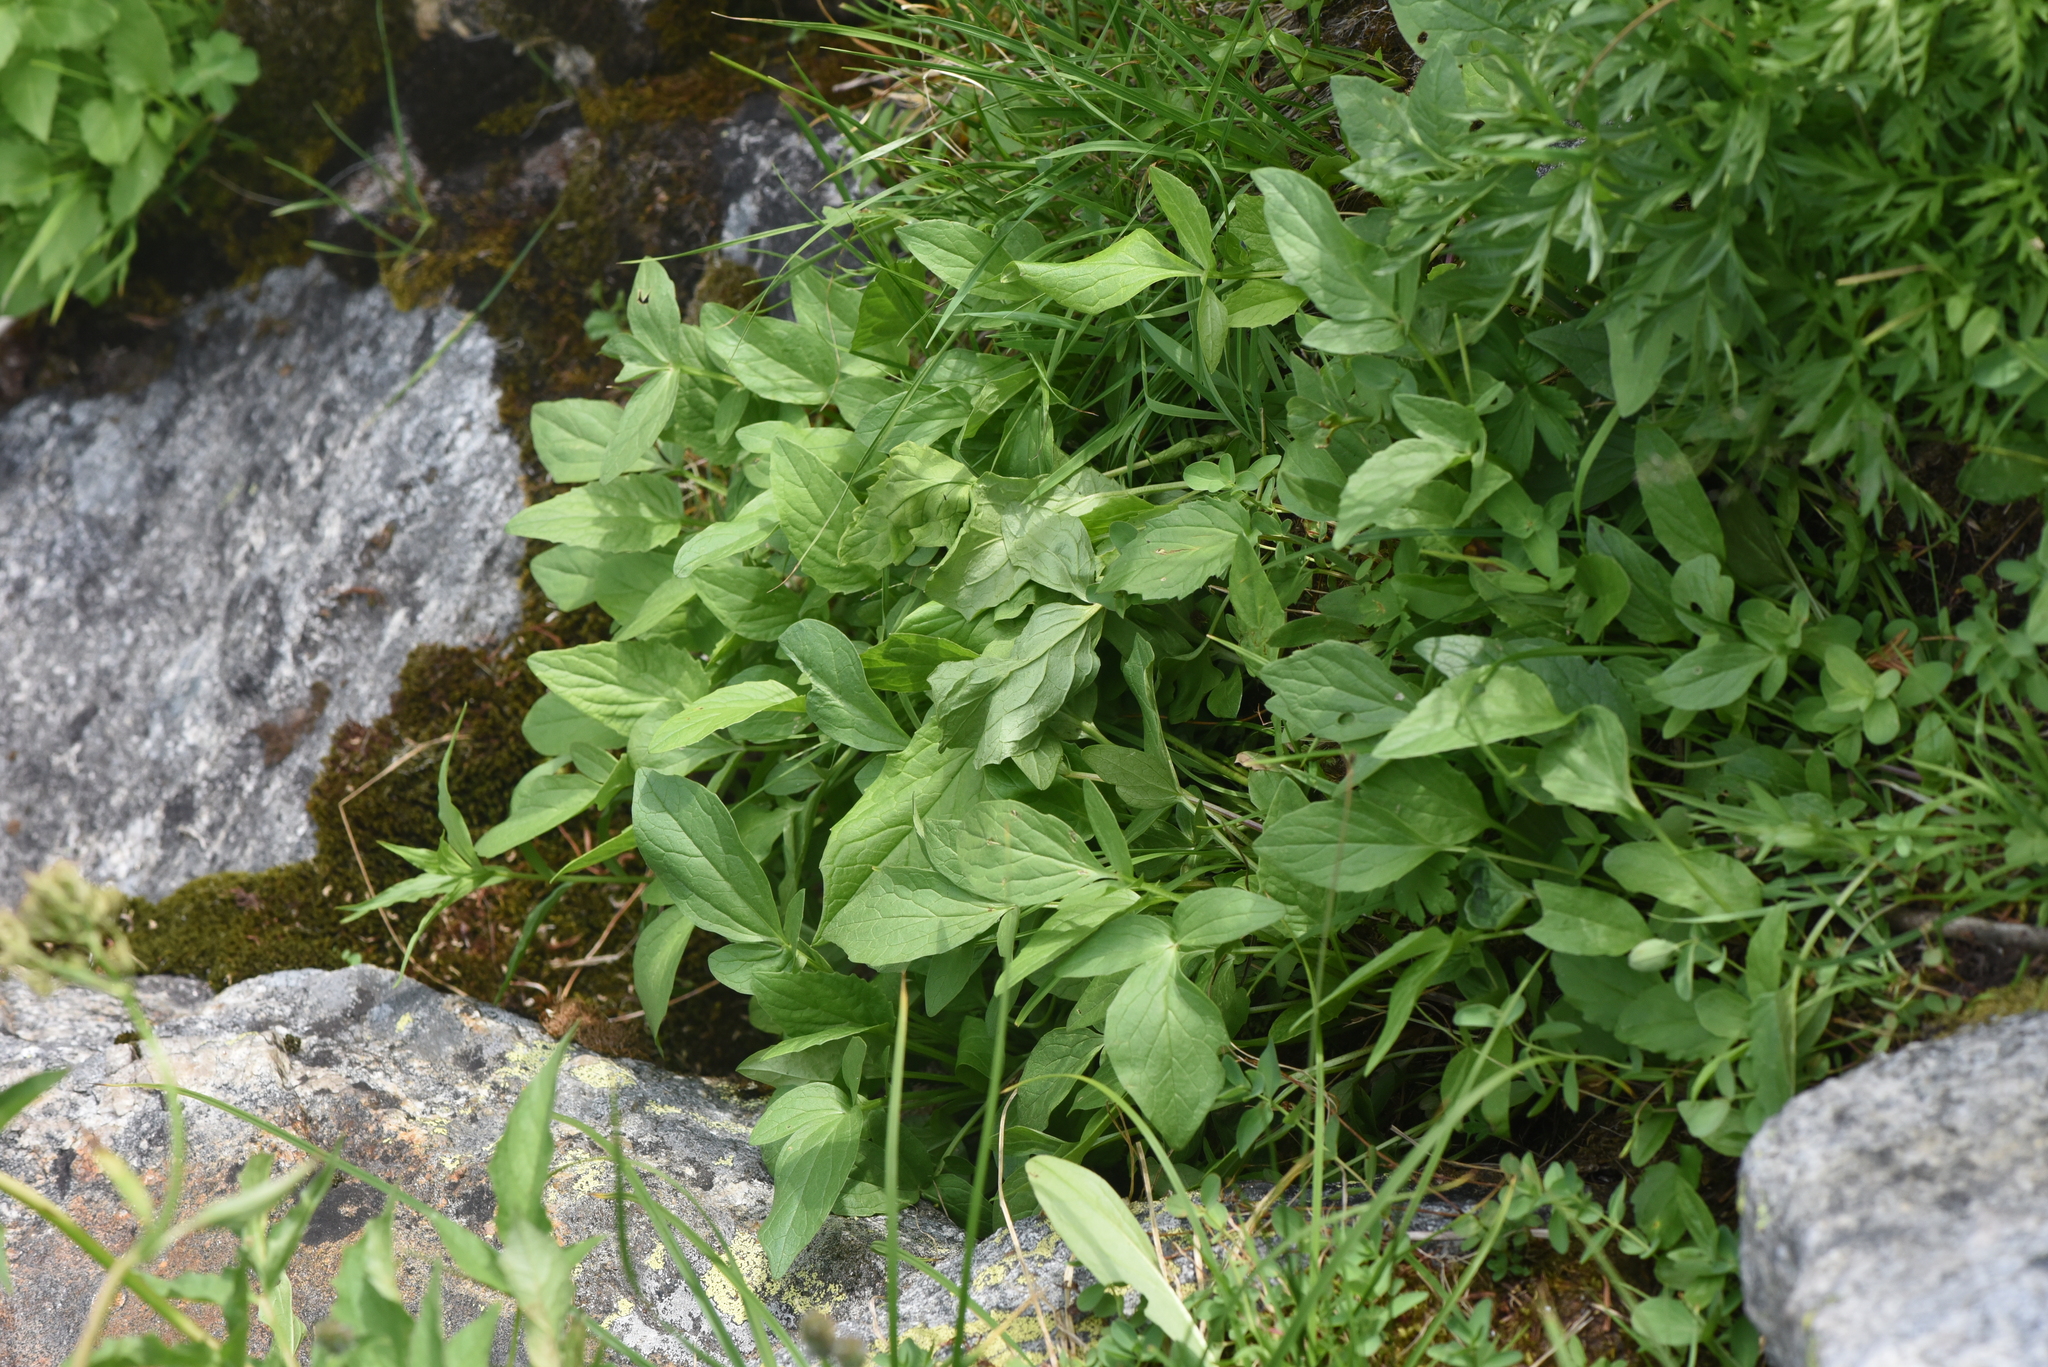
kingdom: Plantae
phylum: Tracheophyta
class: Magnoliopsida
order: Dipsacales
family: Caprifoliaceae
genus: Valeriana
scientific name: Valeriana sitchensis
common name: Pacific valerian
